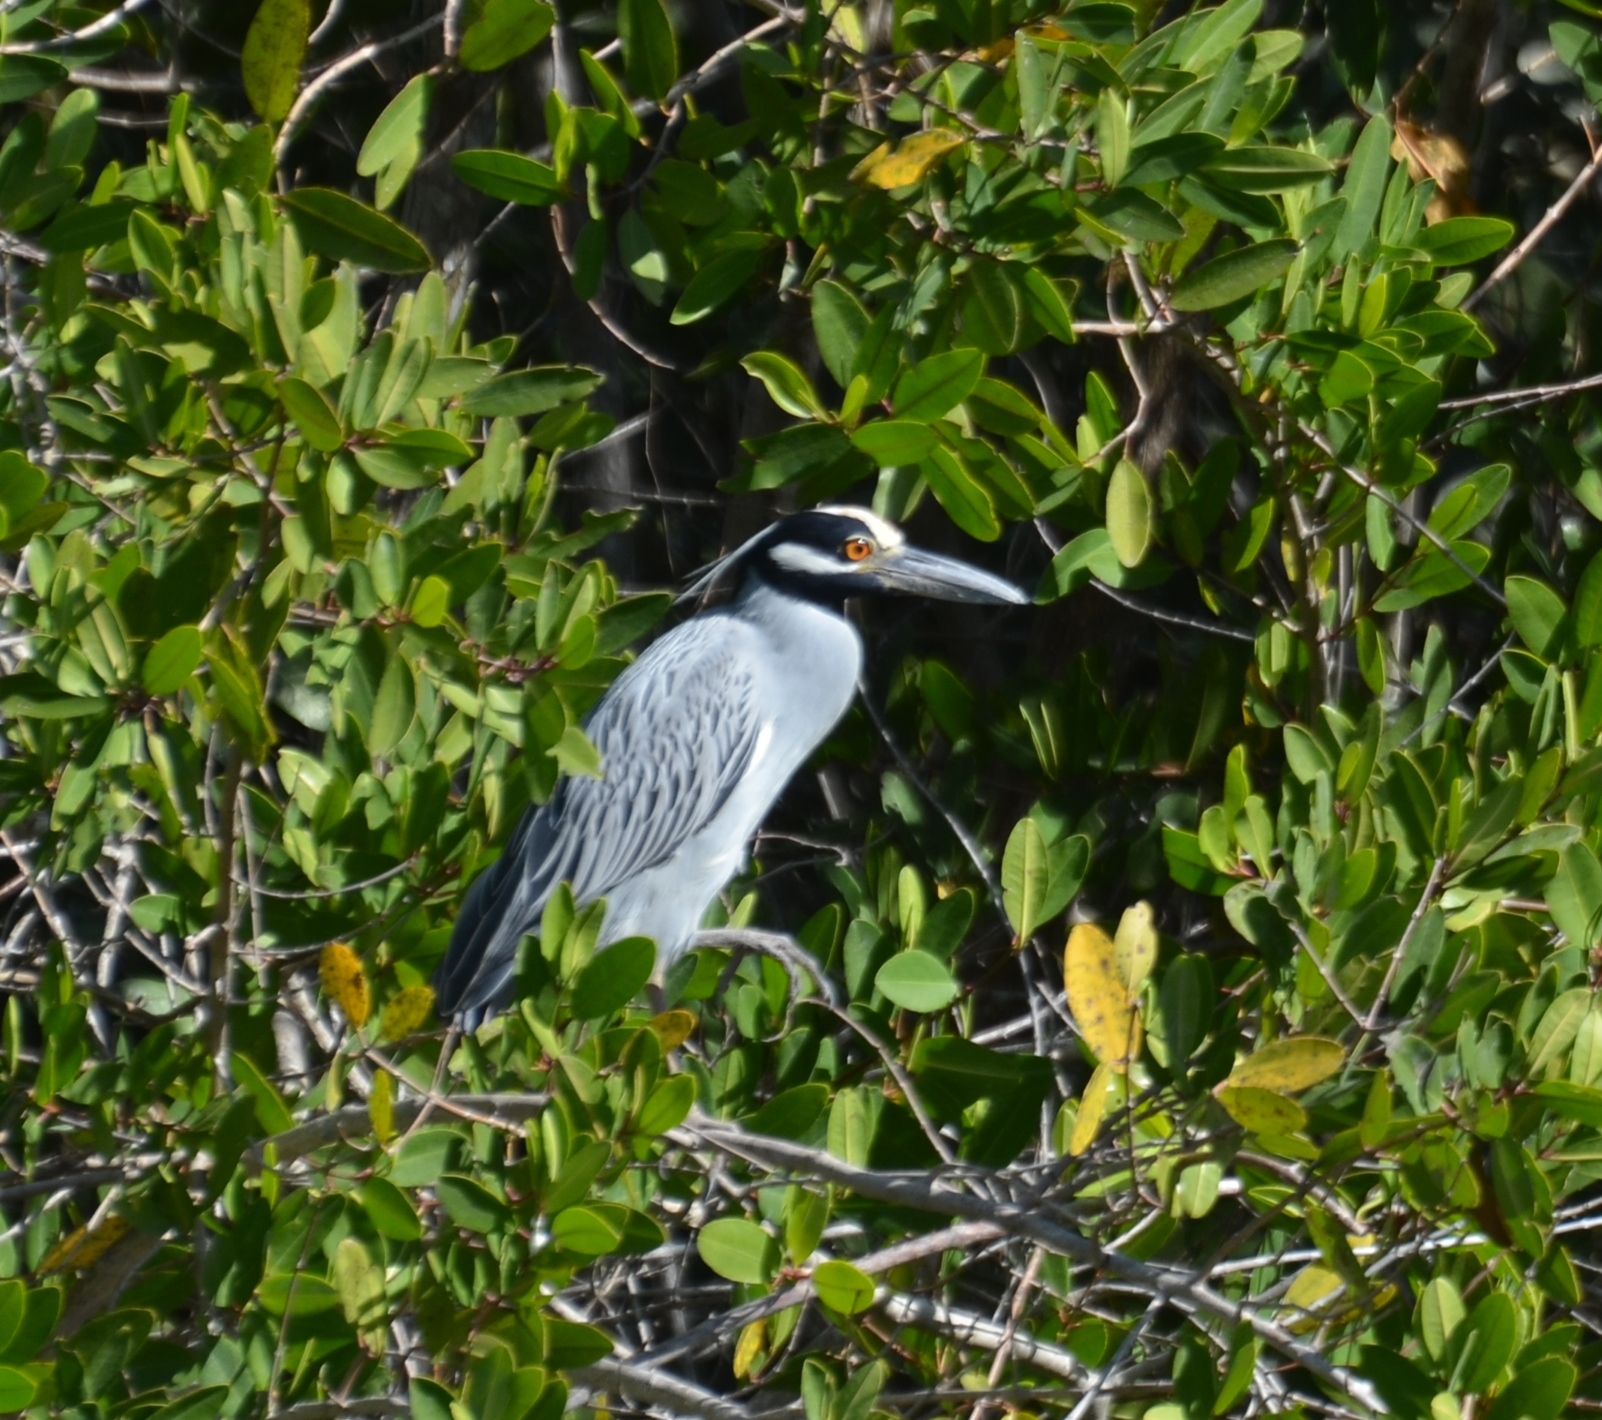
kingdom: Animalia
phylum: Chordata
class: Aves
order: Pelecaniformes
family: Ardeidae
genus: Nyctanassa
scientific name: Nyctanassa violacea
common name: Yellow-crowned night heron
